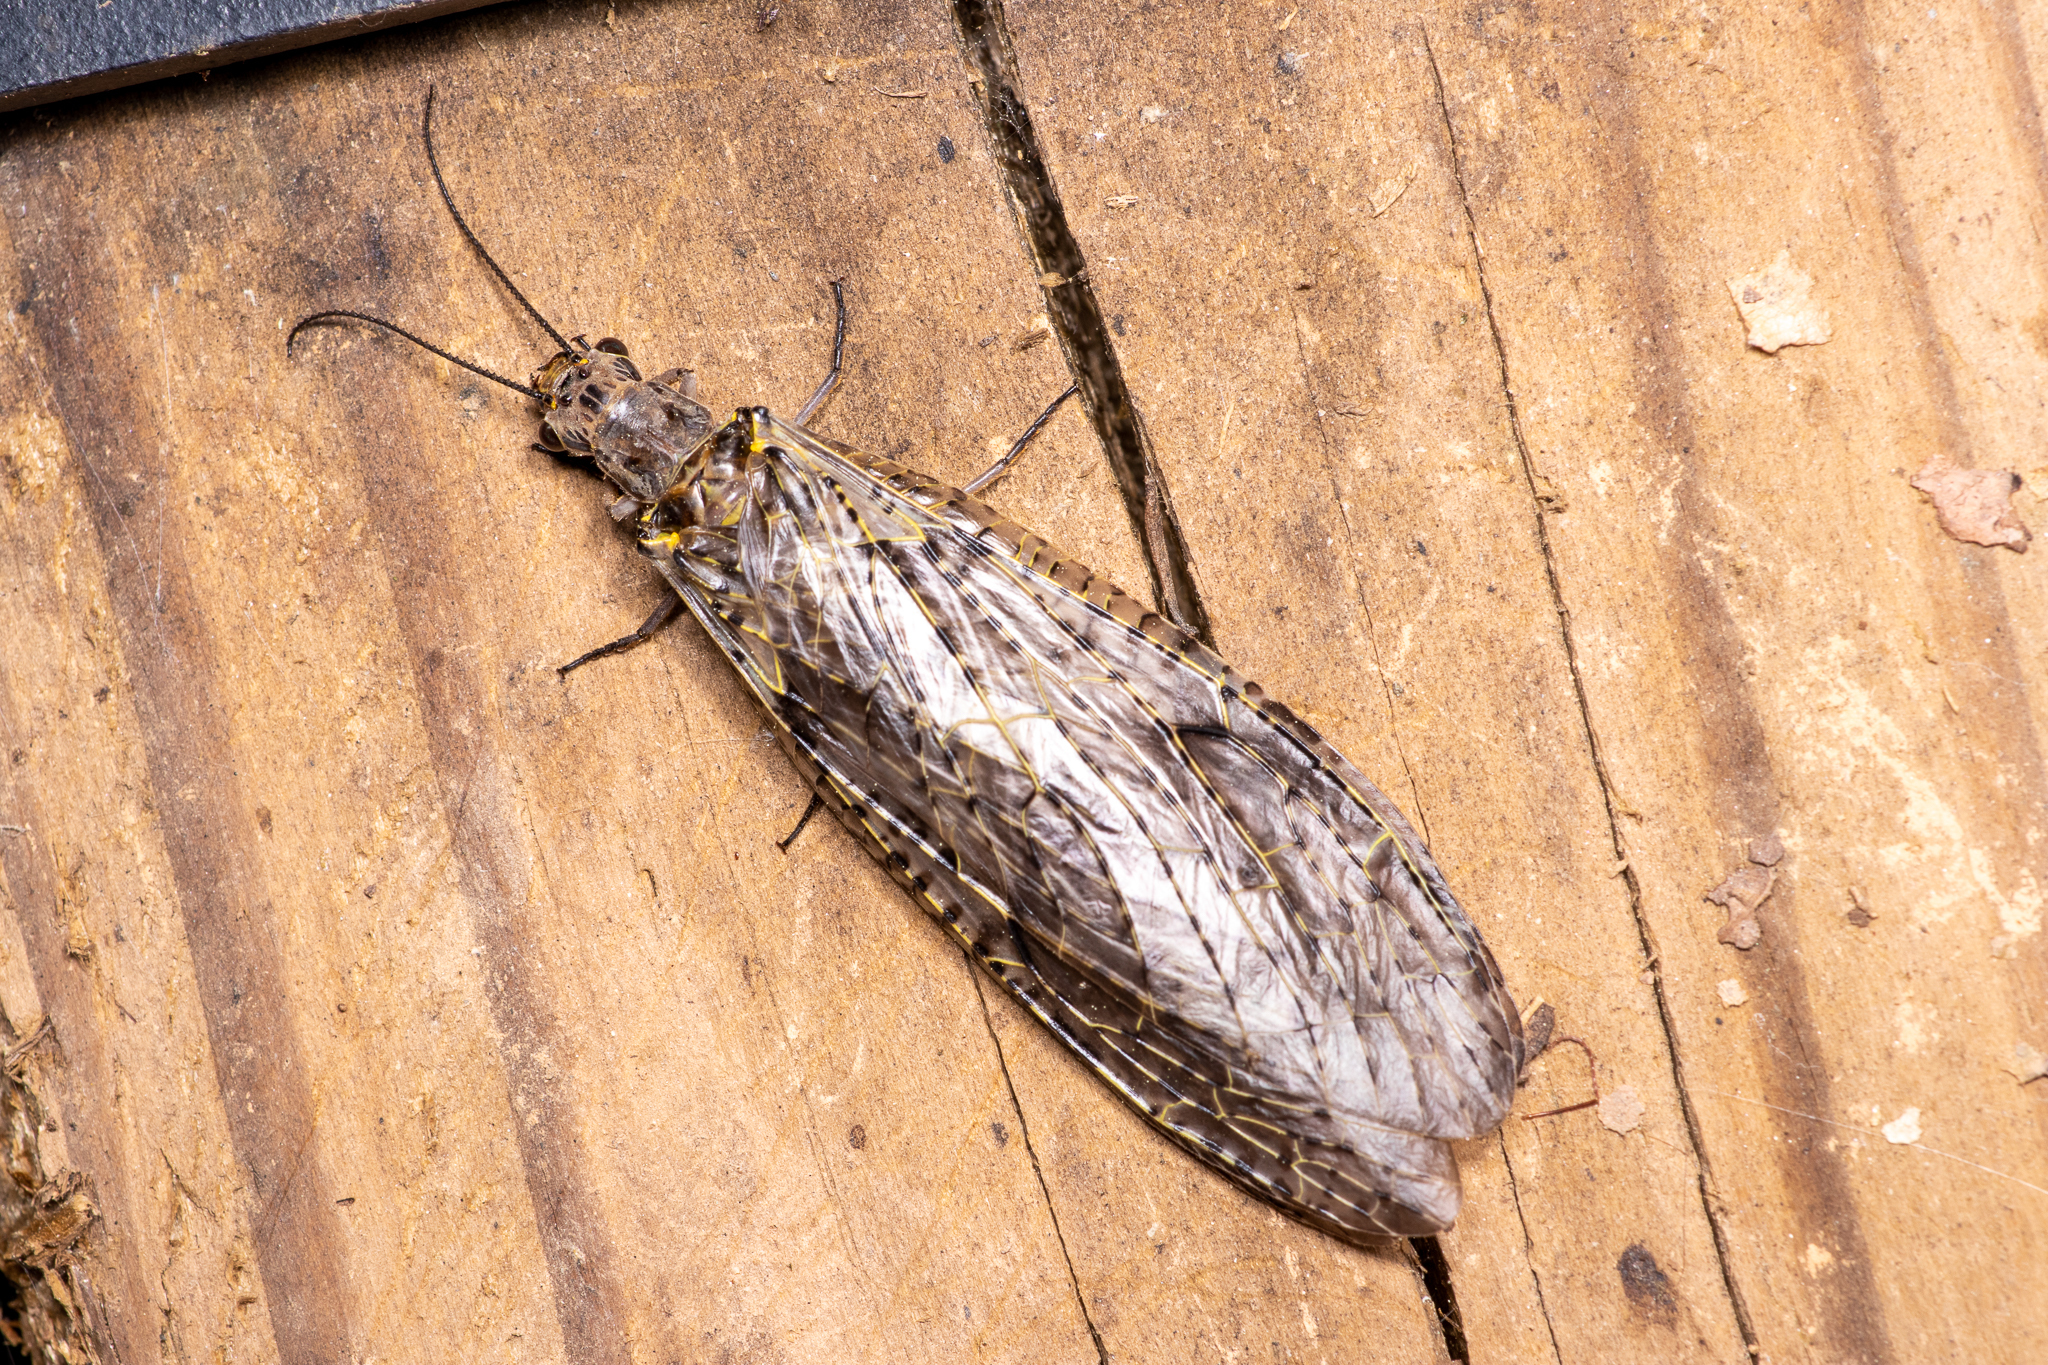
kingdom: Animalia
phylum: Arthropoda
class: Insecta
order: Megaloptera
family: Corydalidae
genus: Chauliodes
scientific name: Chauliodes rastricornis
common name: Spring fishfly
